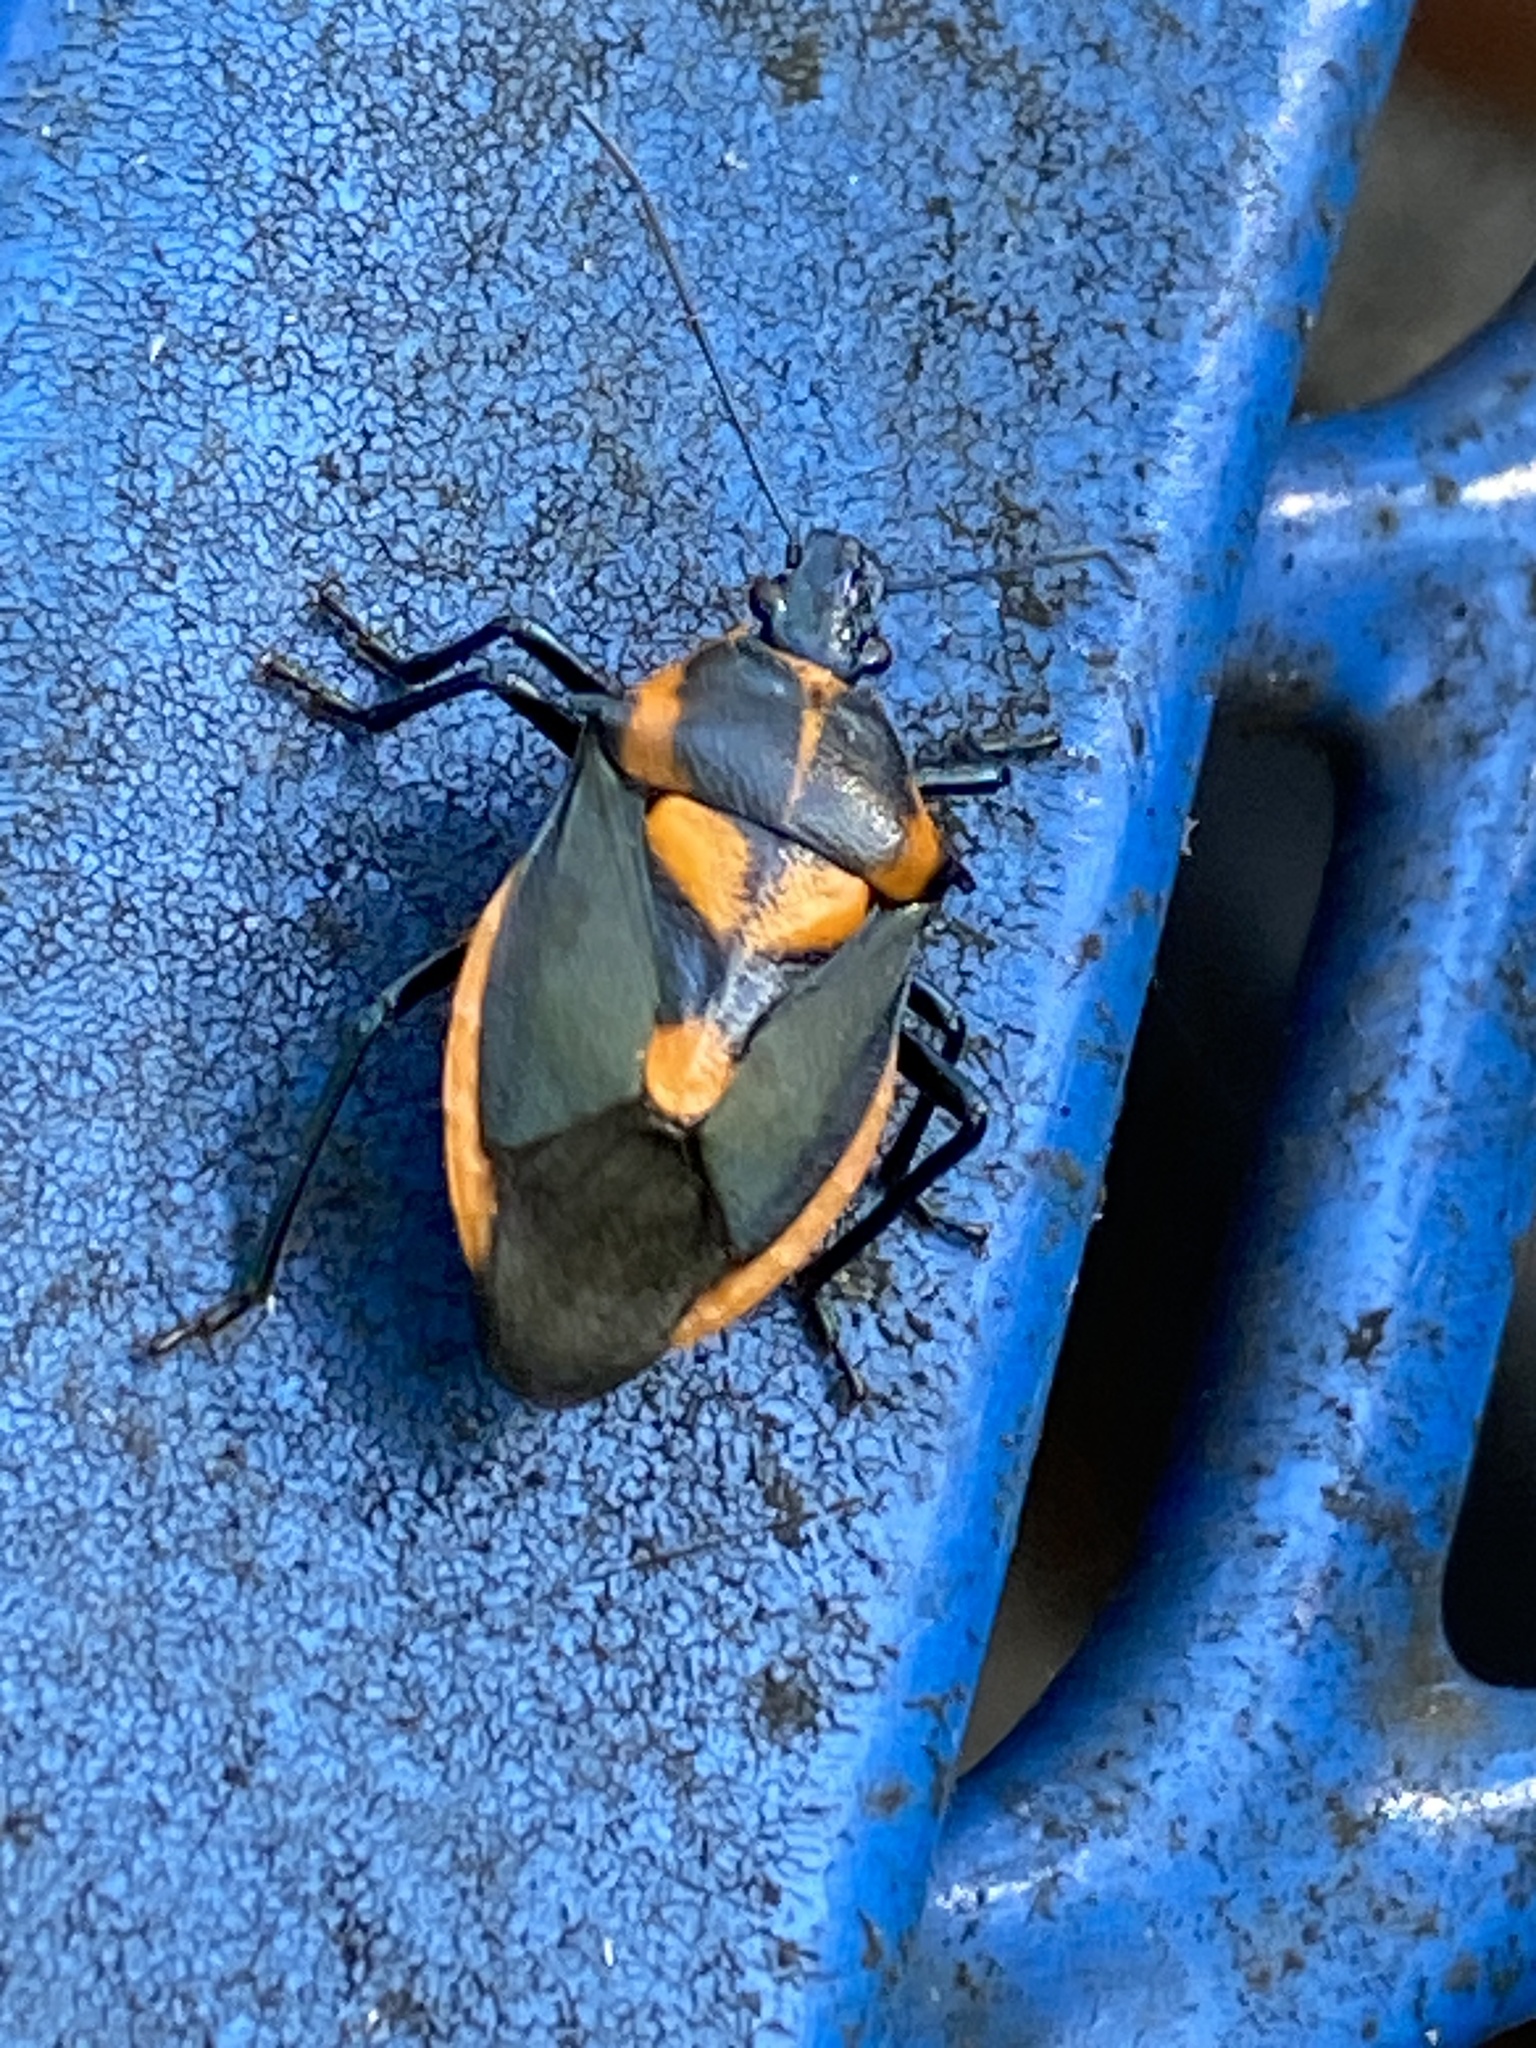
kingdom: Animalia
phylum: Arthropoda
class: Insecta
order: Hemiptera
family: Pentatomidae
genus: Euthyrhynchus
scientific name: Euthyrhynchus floridanus
